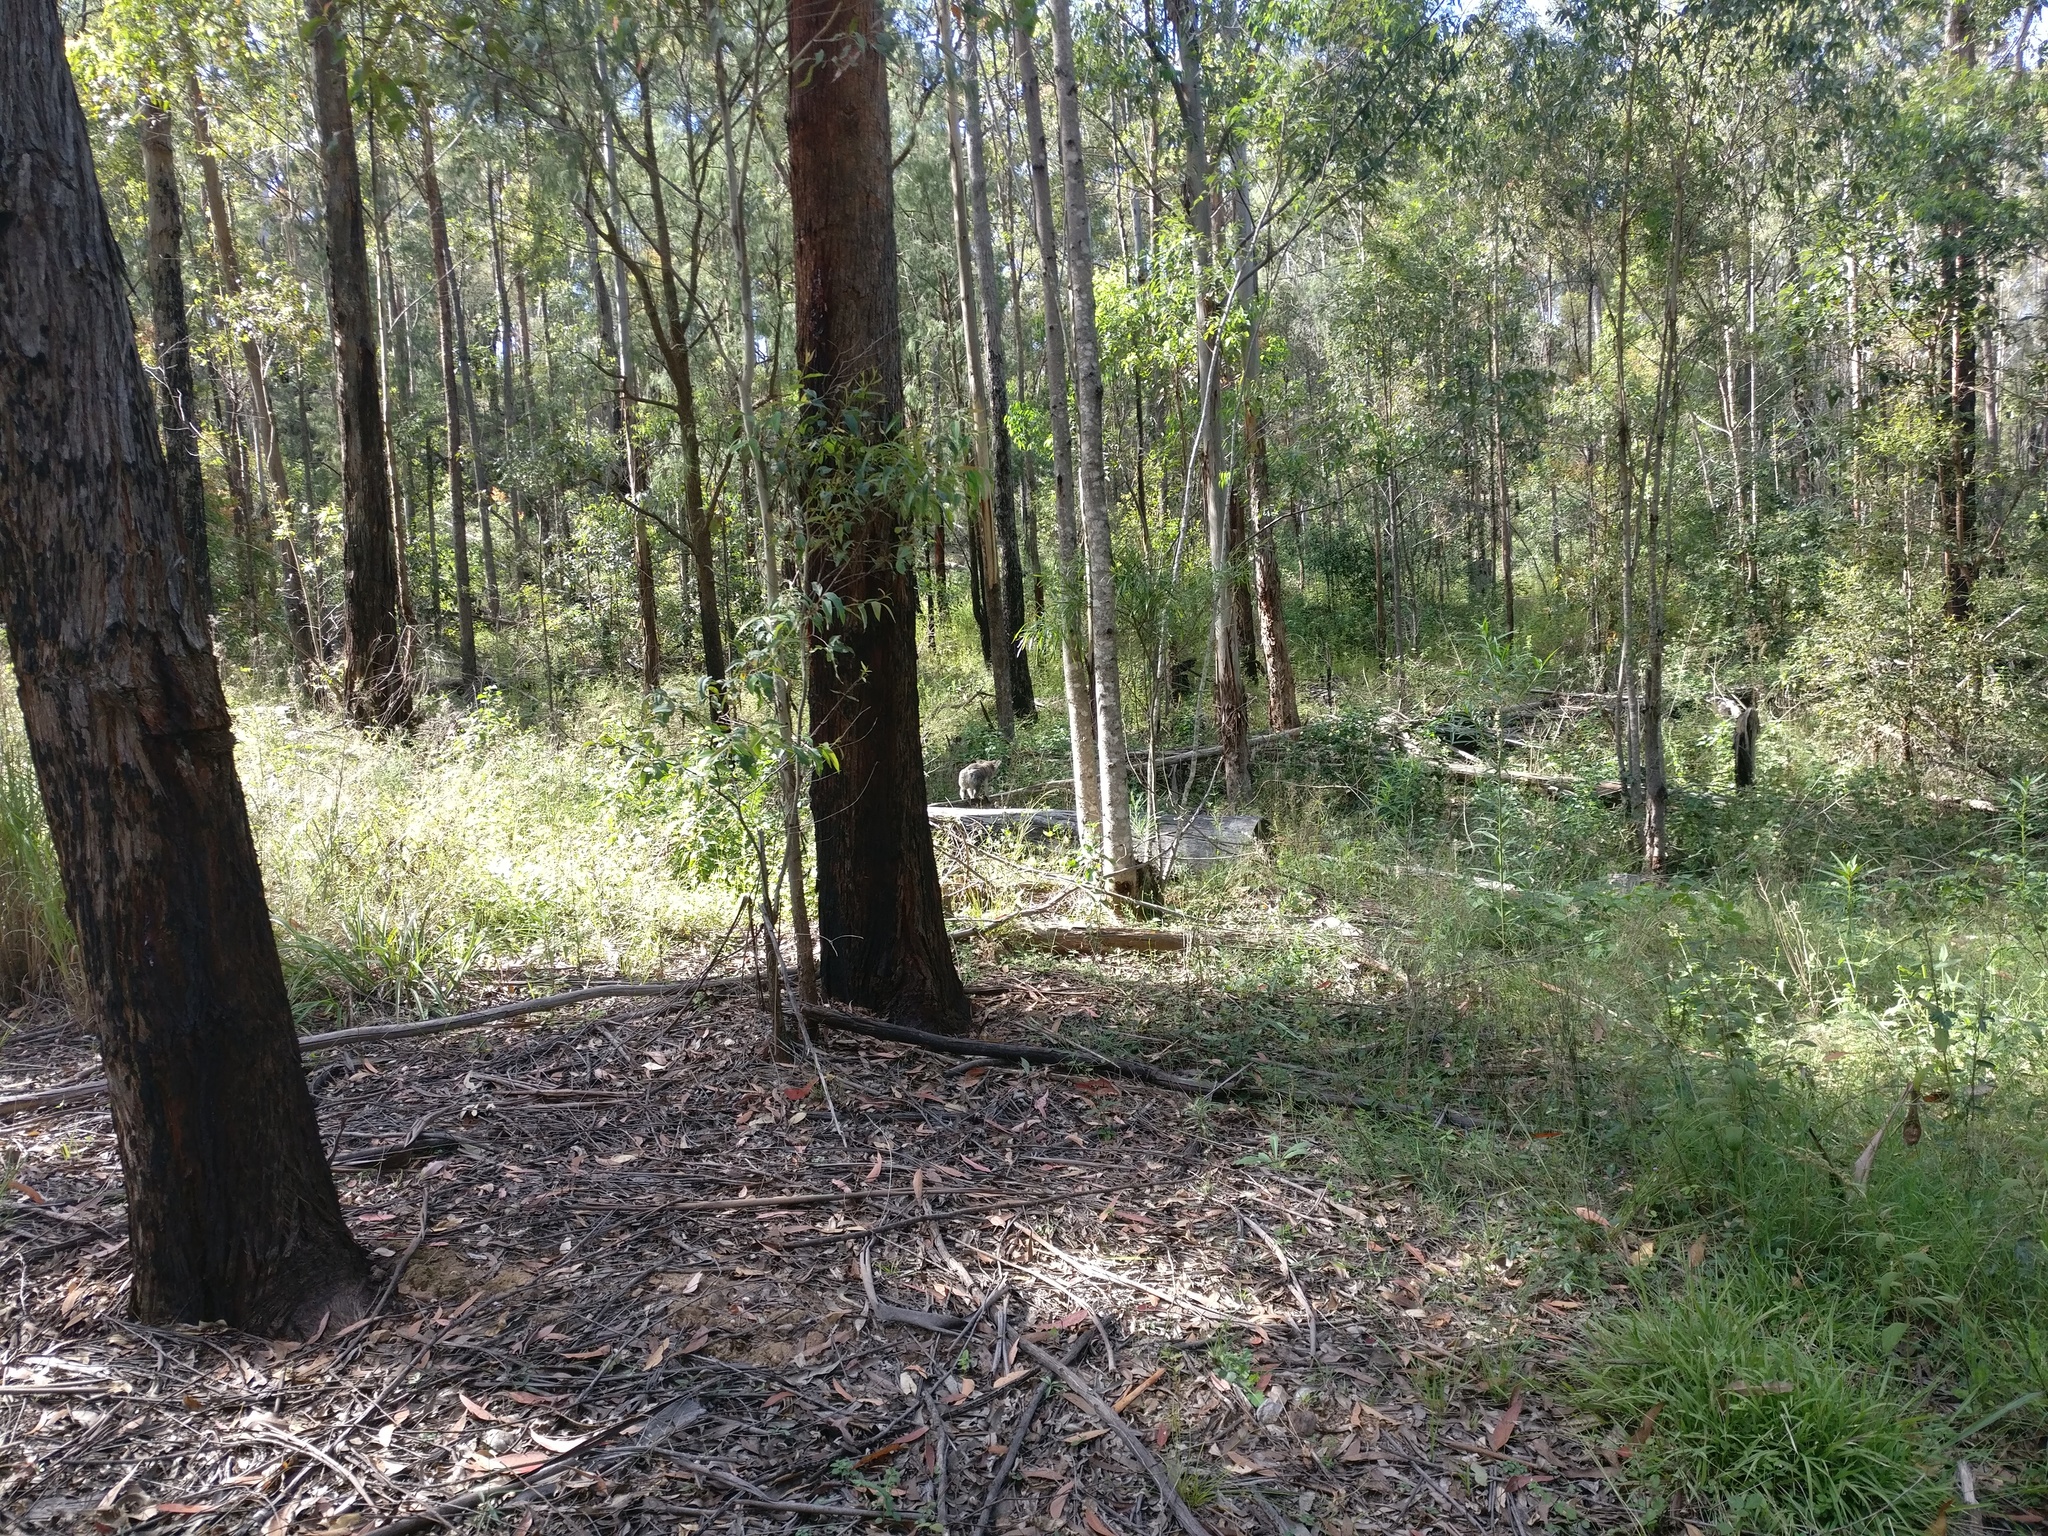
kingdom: Animalia
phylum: Chordata
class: Mammalia
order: Diprotodontia
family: Phascolarctidae
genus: Phascolarctos
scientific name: Phascolarctos cinereus
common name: Koala
